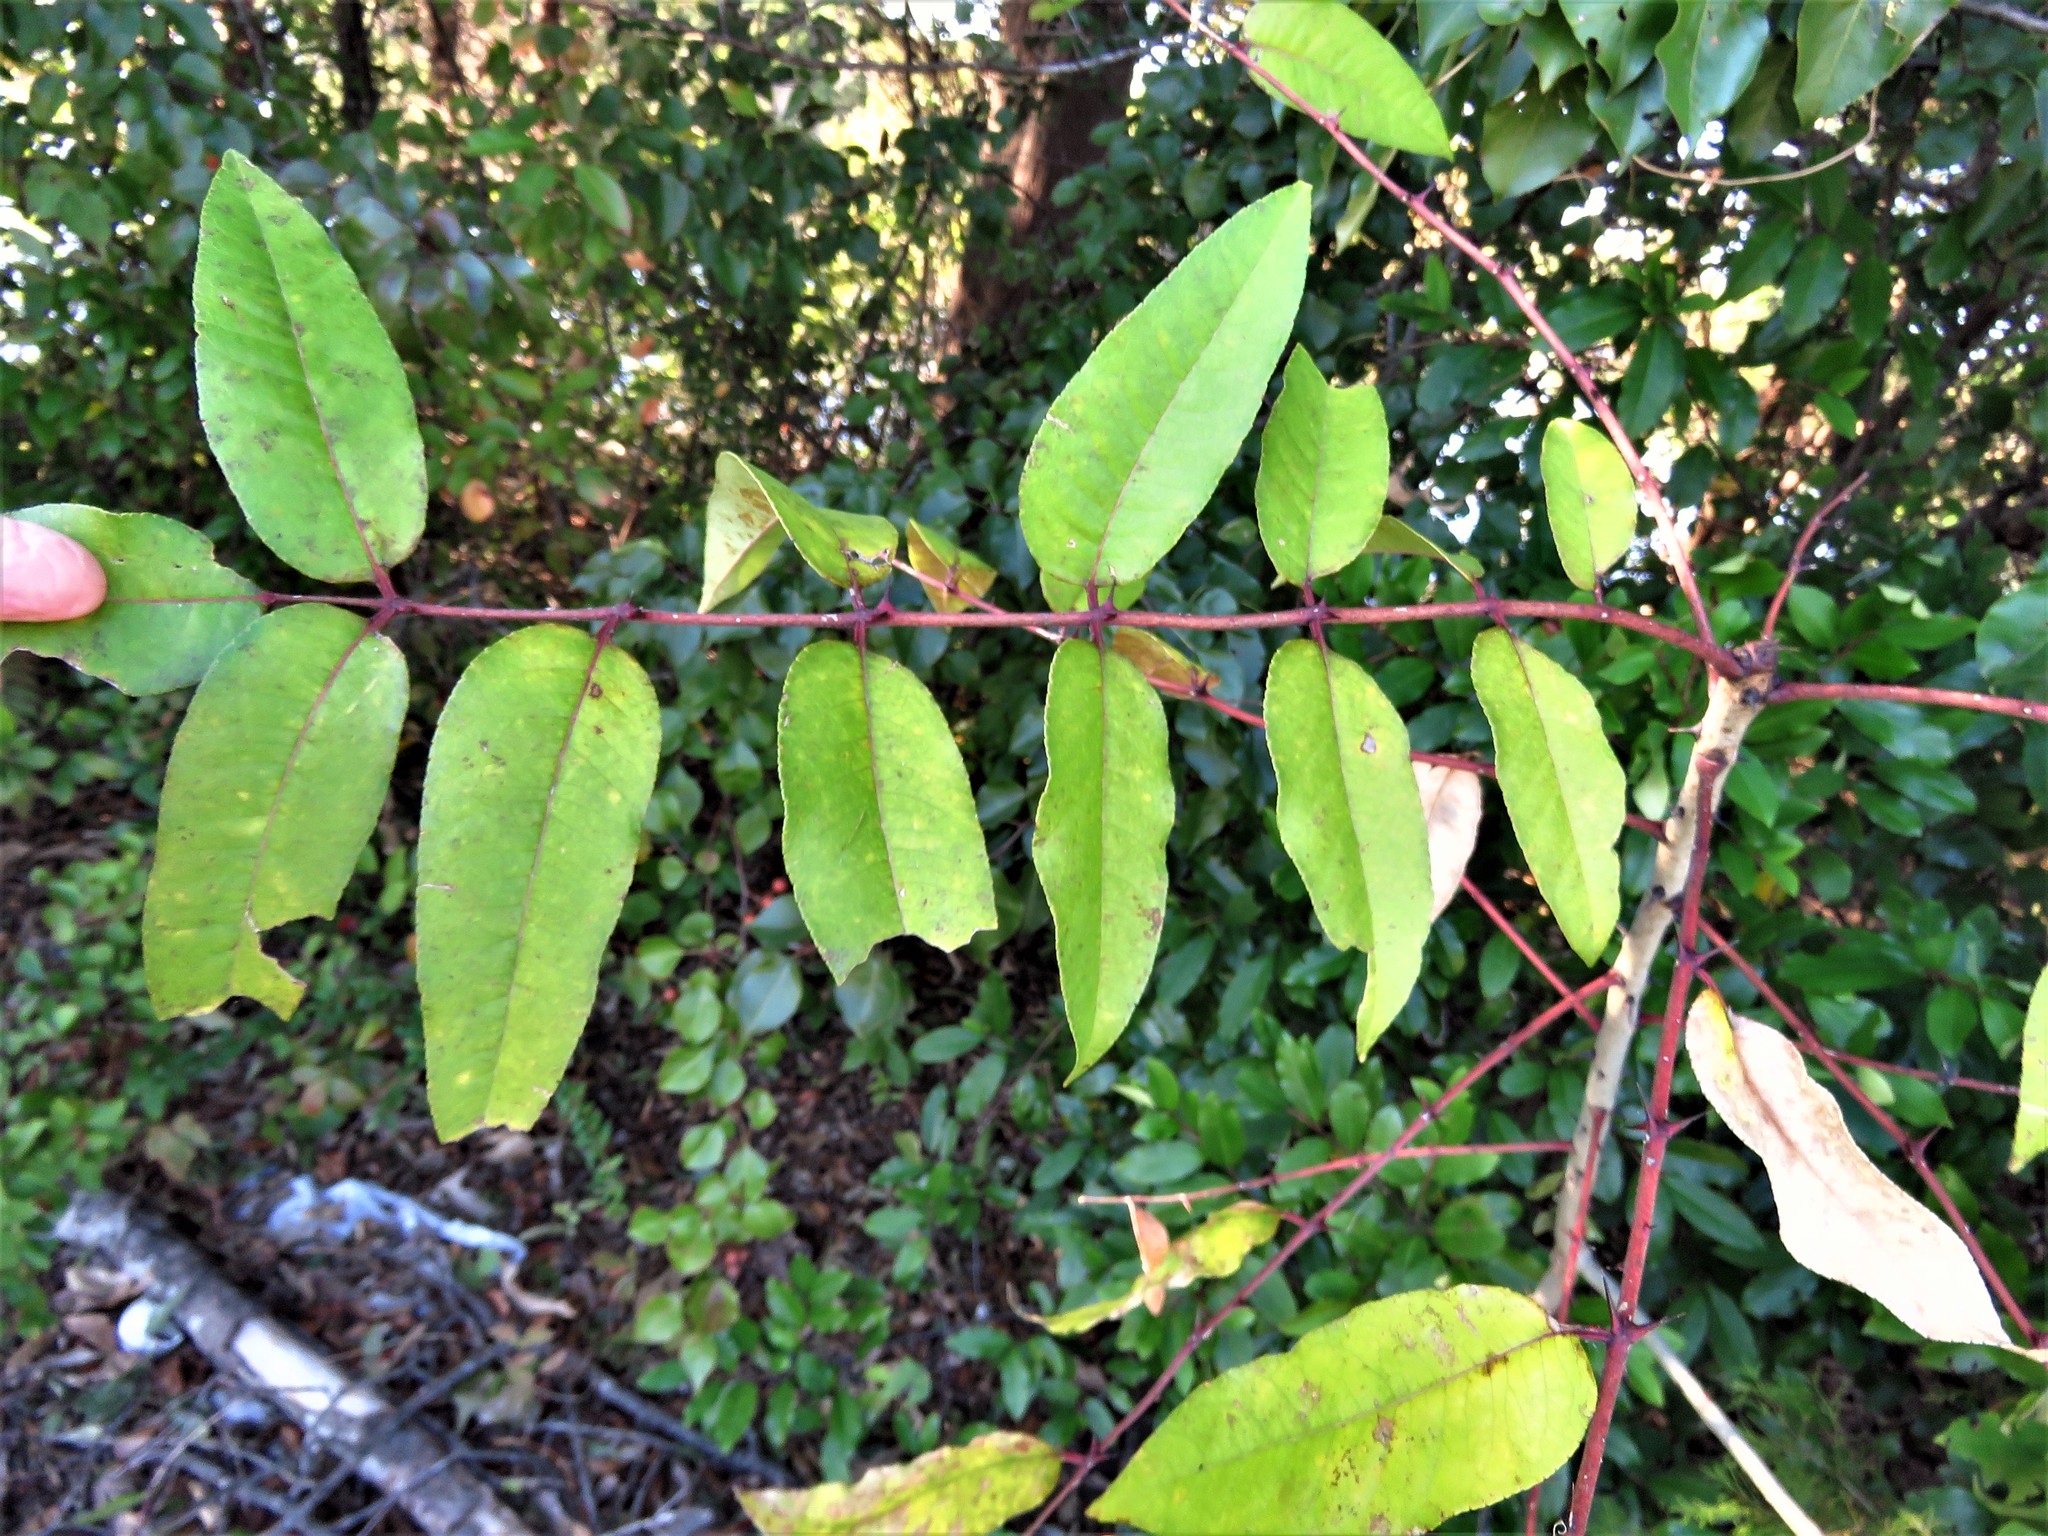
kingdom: Plantae
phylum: Tracheophyta
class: Magnoliopsida
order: Sapindales
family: Rutaceae
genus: Zanthoxylum
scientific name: Zanthoxylum clava-herculis
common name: Hercules'-club
